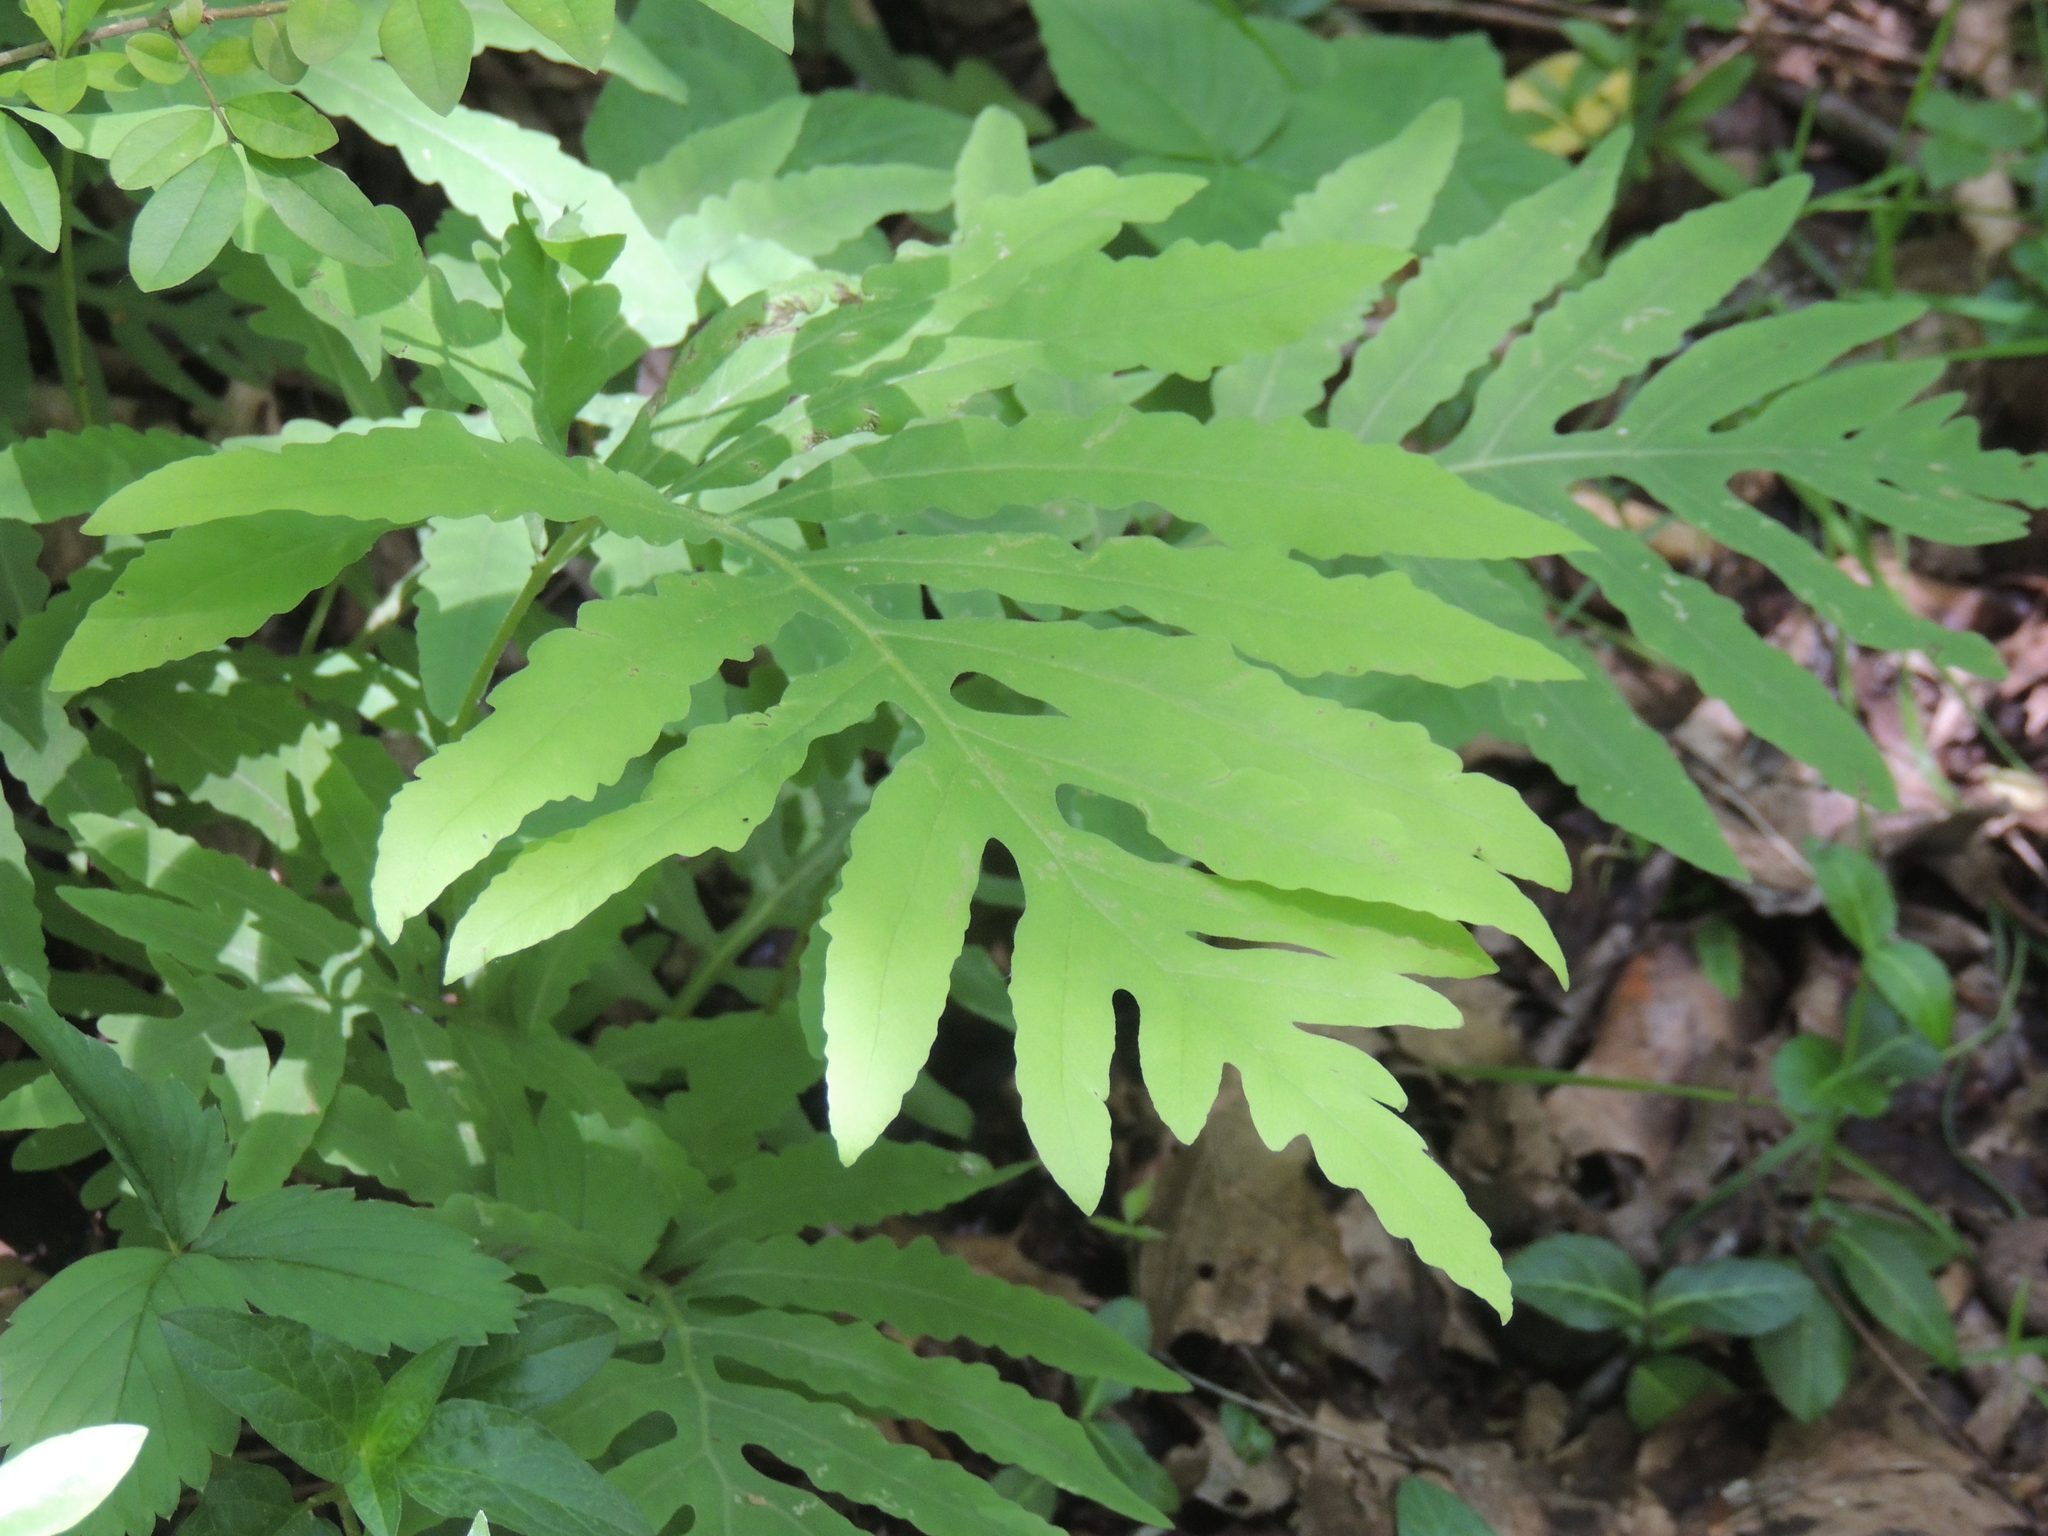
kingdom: Plantae
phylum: Tracheophyta
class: Polypodiopsida
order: Polypodiales
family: Onocleaceae
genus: Onoclea
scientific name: Onoclea sensibilis
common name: Sensitive fern
